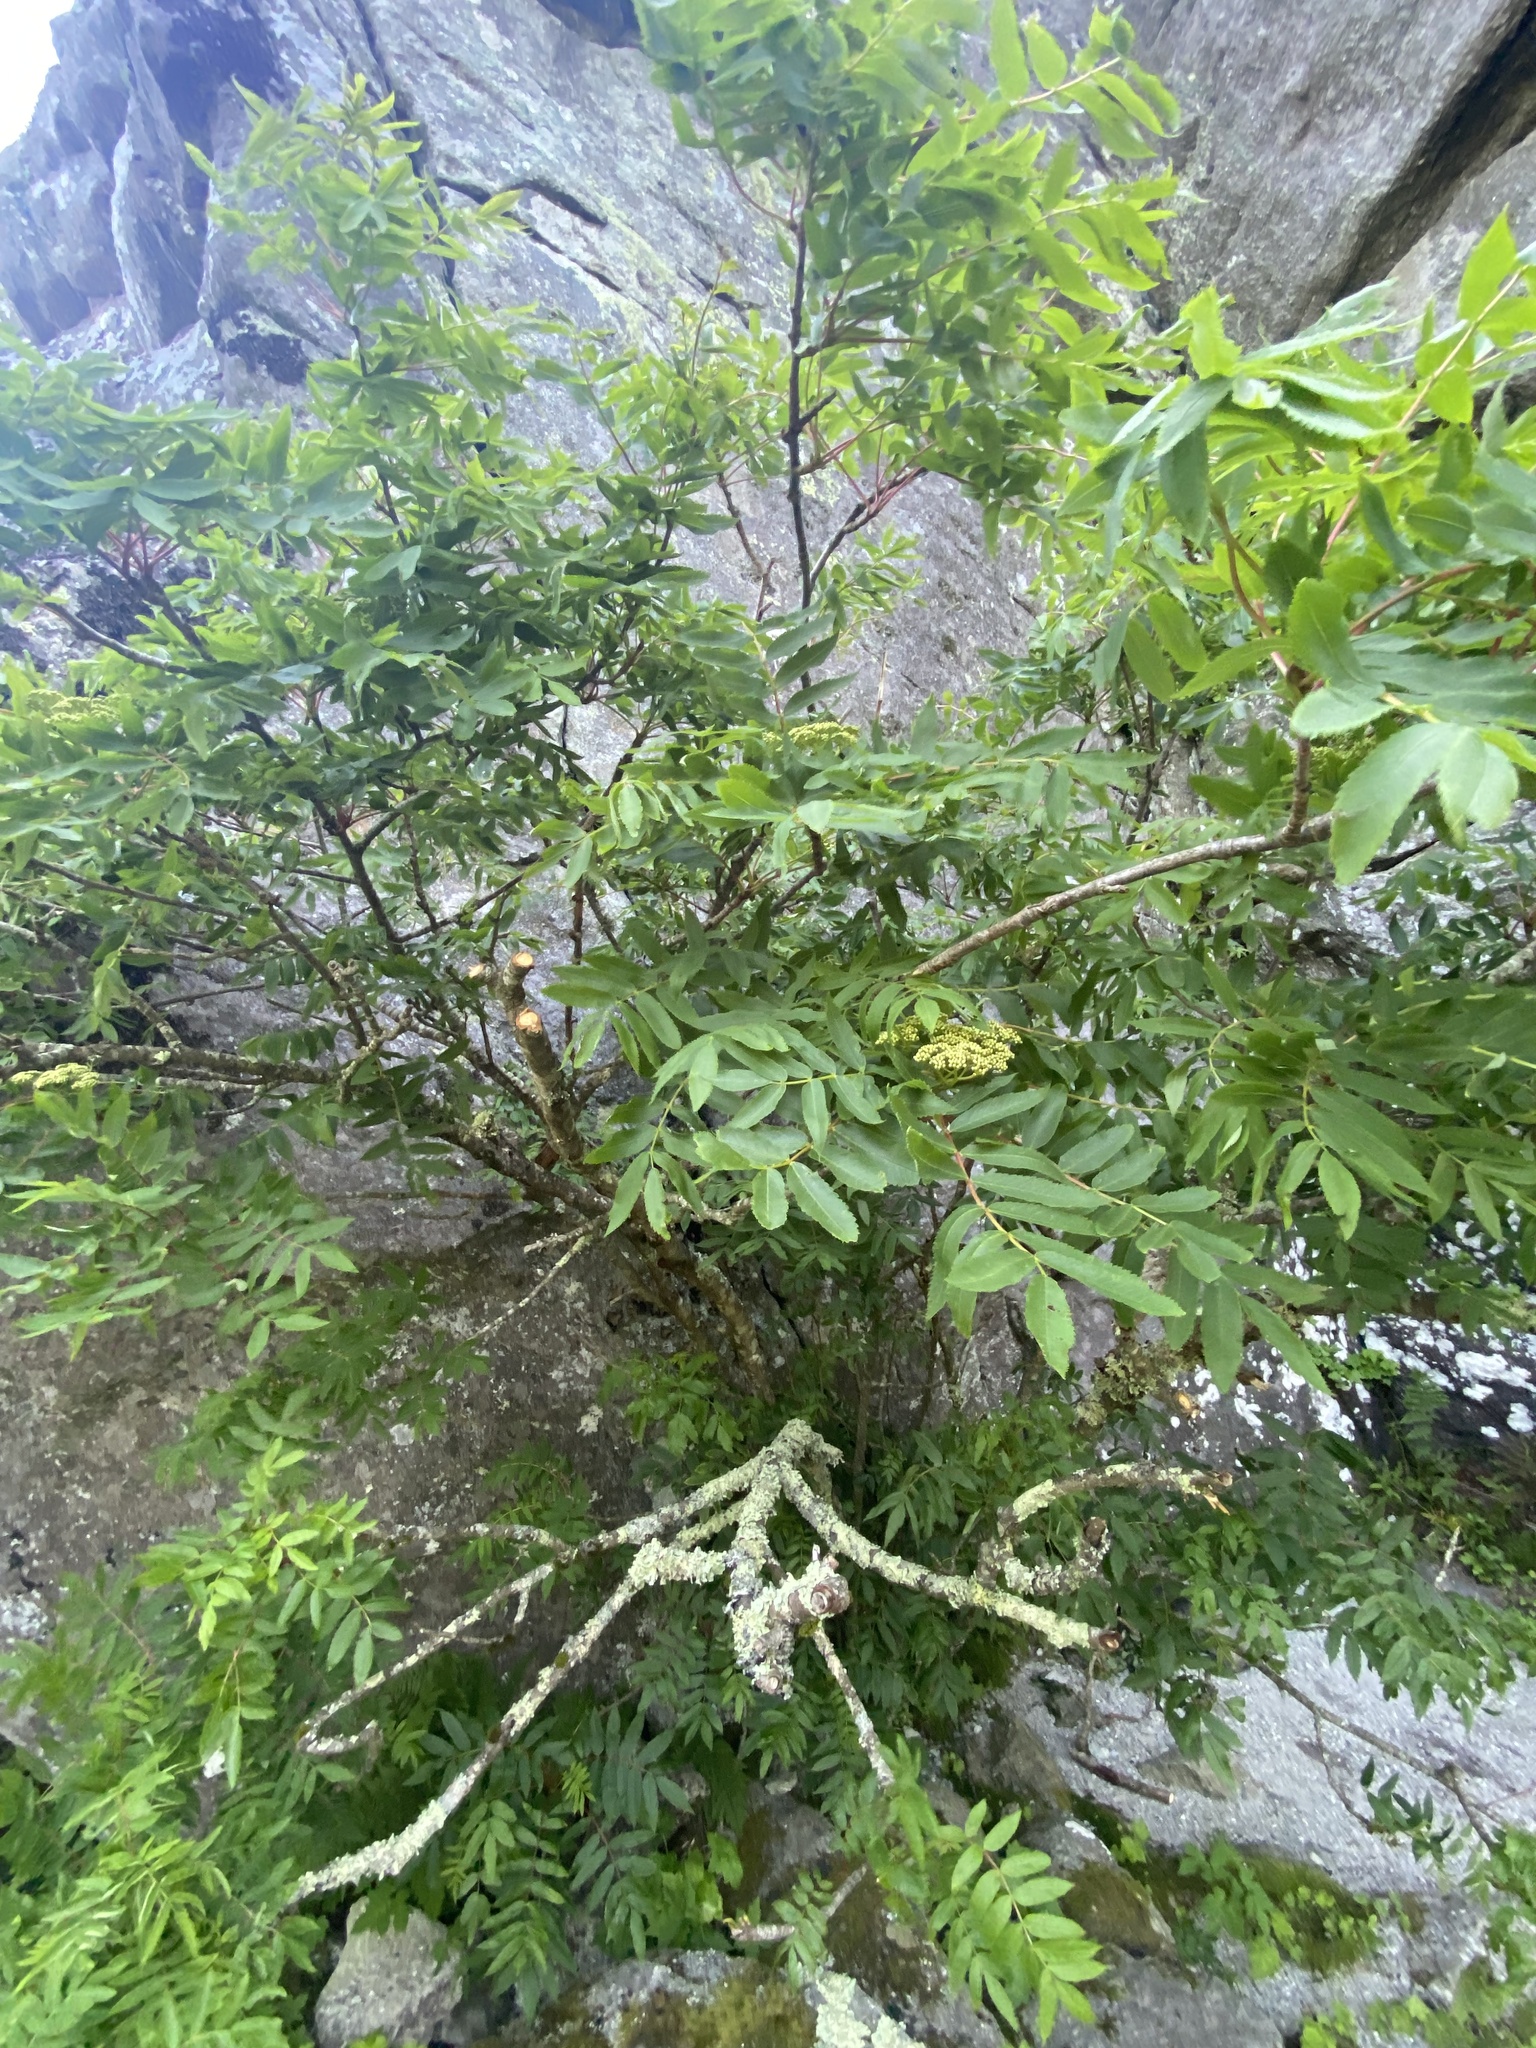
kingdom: Plantae
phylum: Tracheophyta
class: Magnoliopsida
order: Rosales
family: Rosaceae
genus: Sorbus
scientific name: Sorbus americana
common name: American mountain-ash
